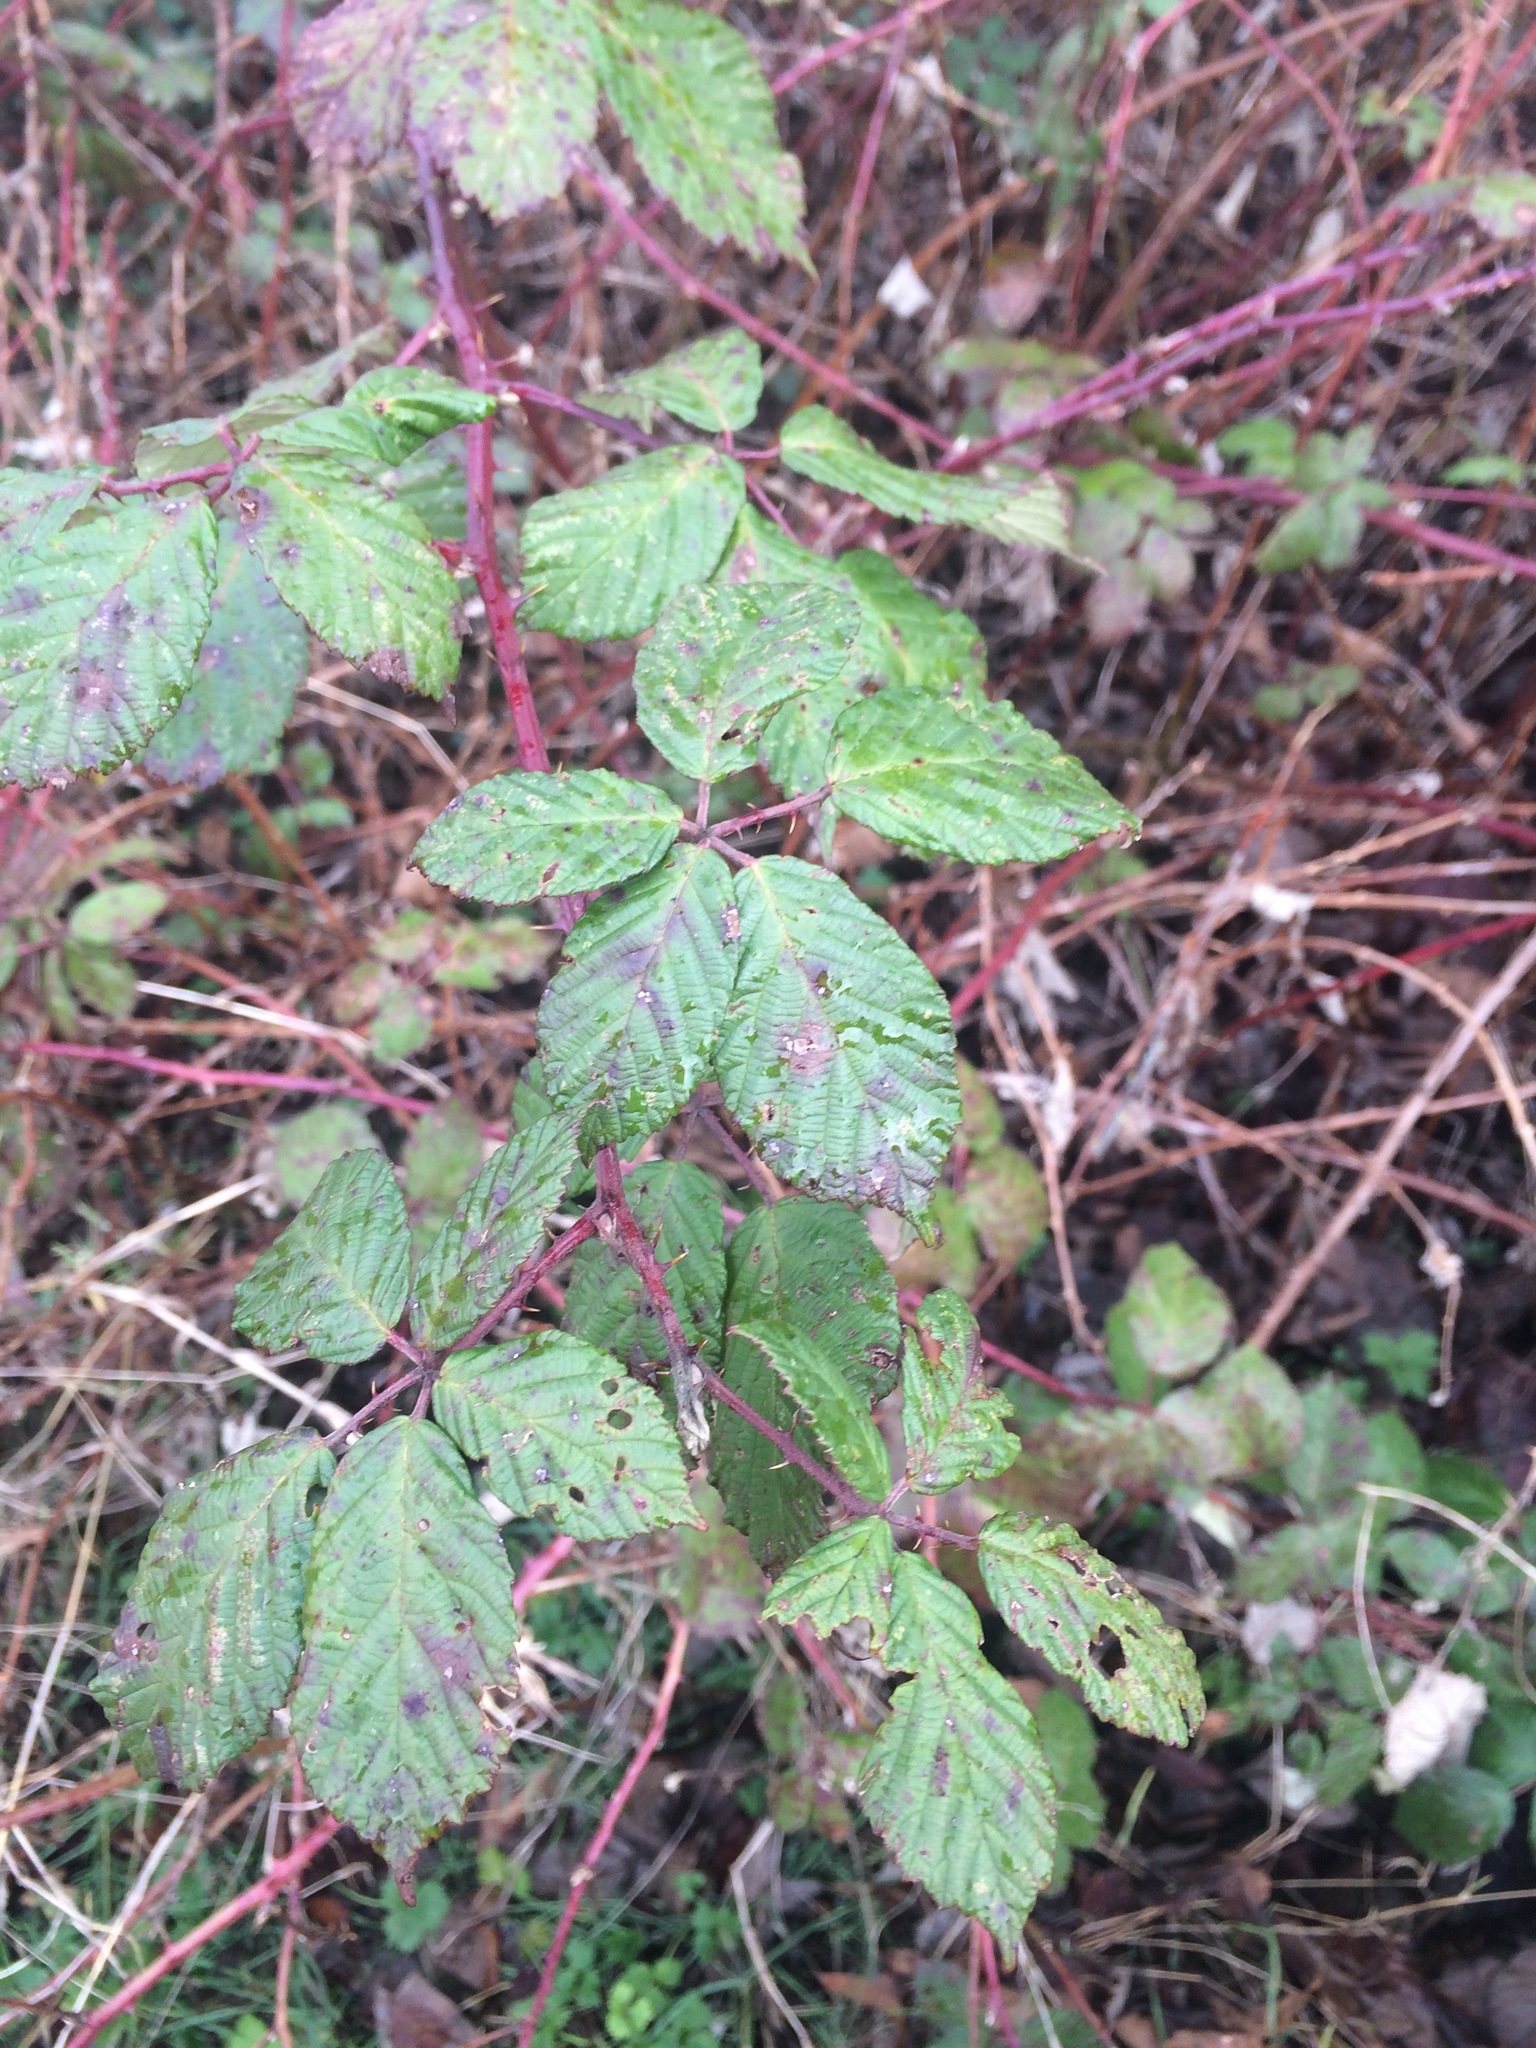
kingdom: Plantae
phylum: Tracheophyta
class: Magnoliopsida
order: Rosales
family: Rosaceae
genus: Rubus
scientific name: Rubus bifrons
